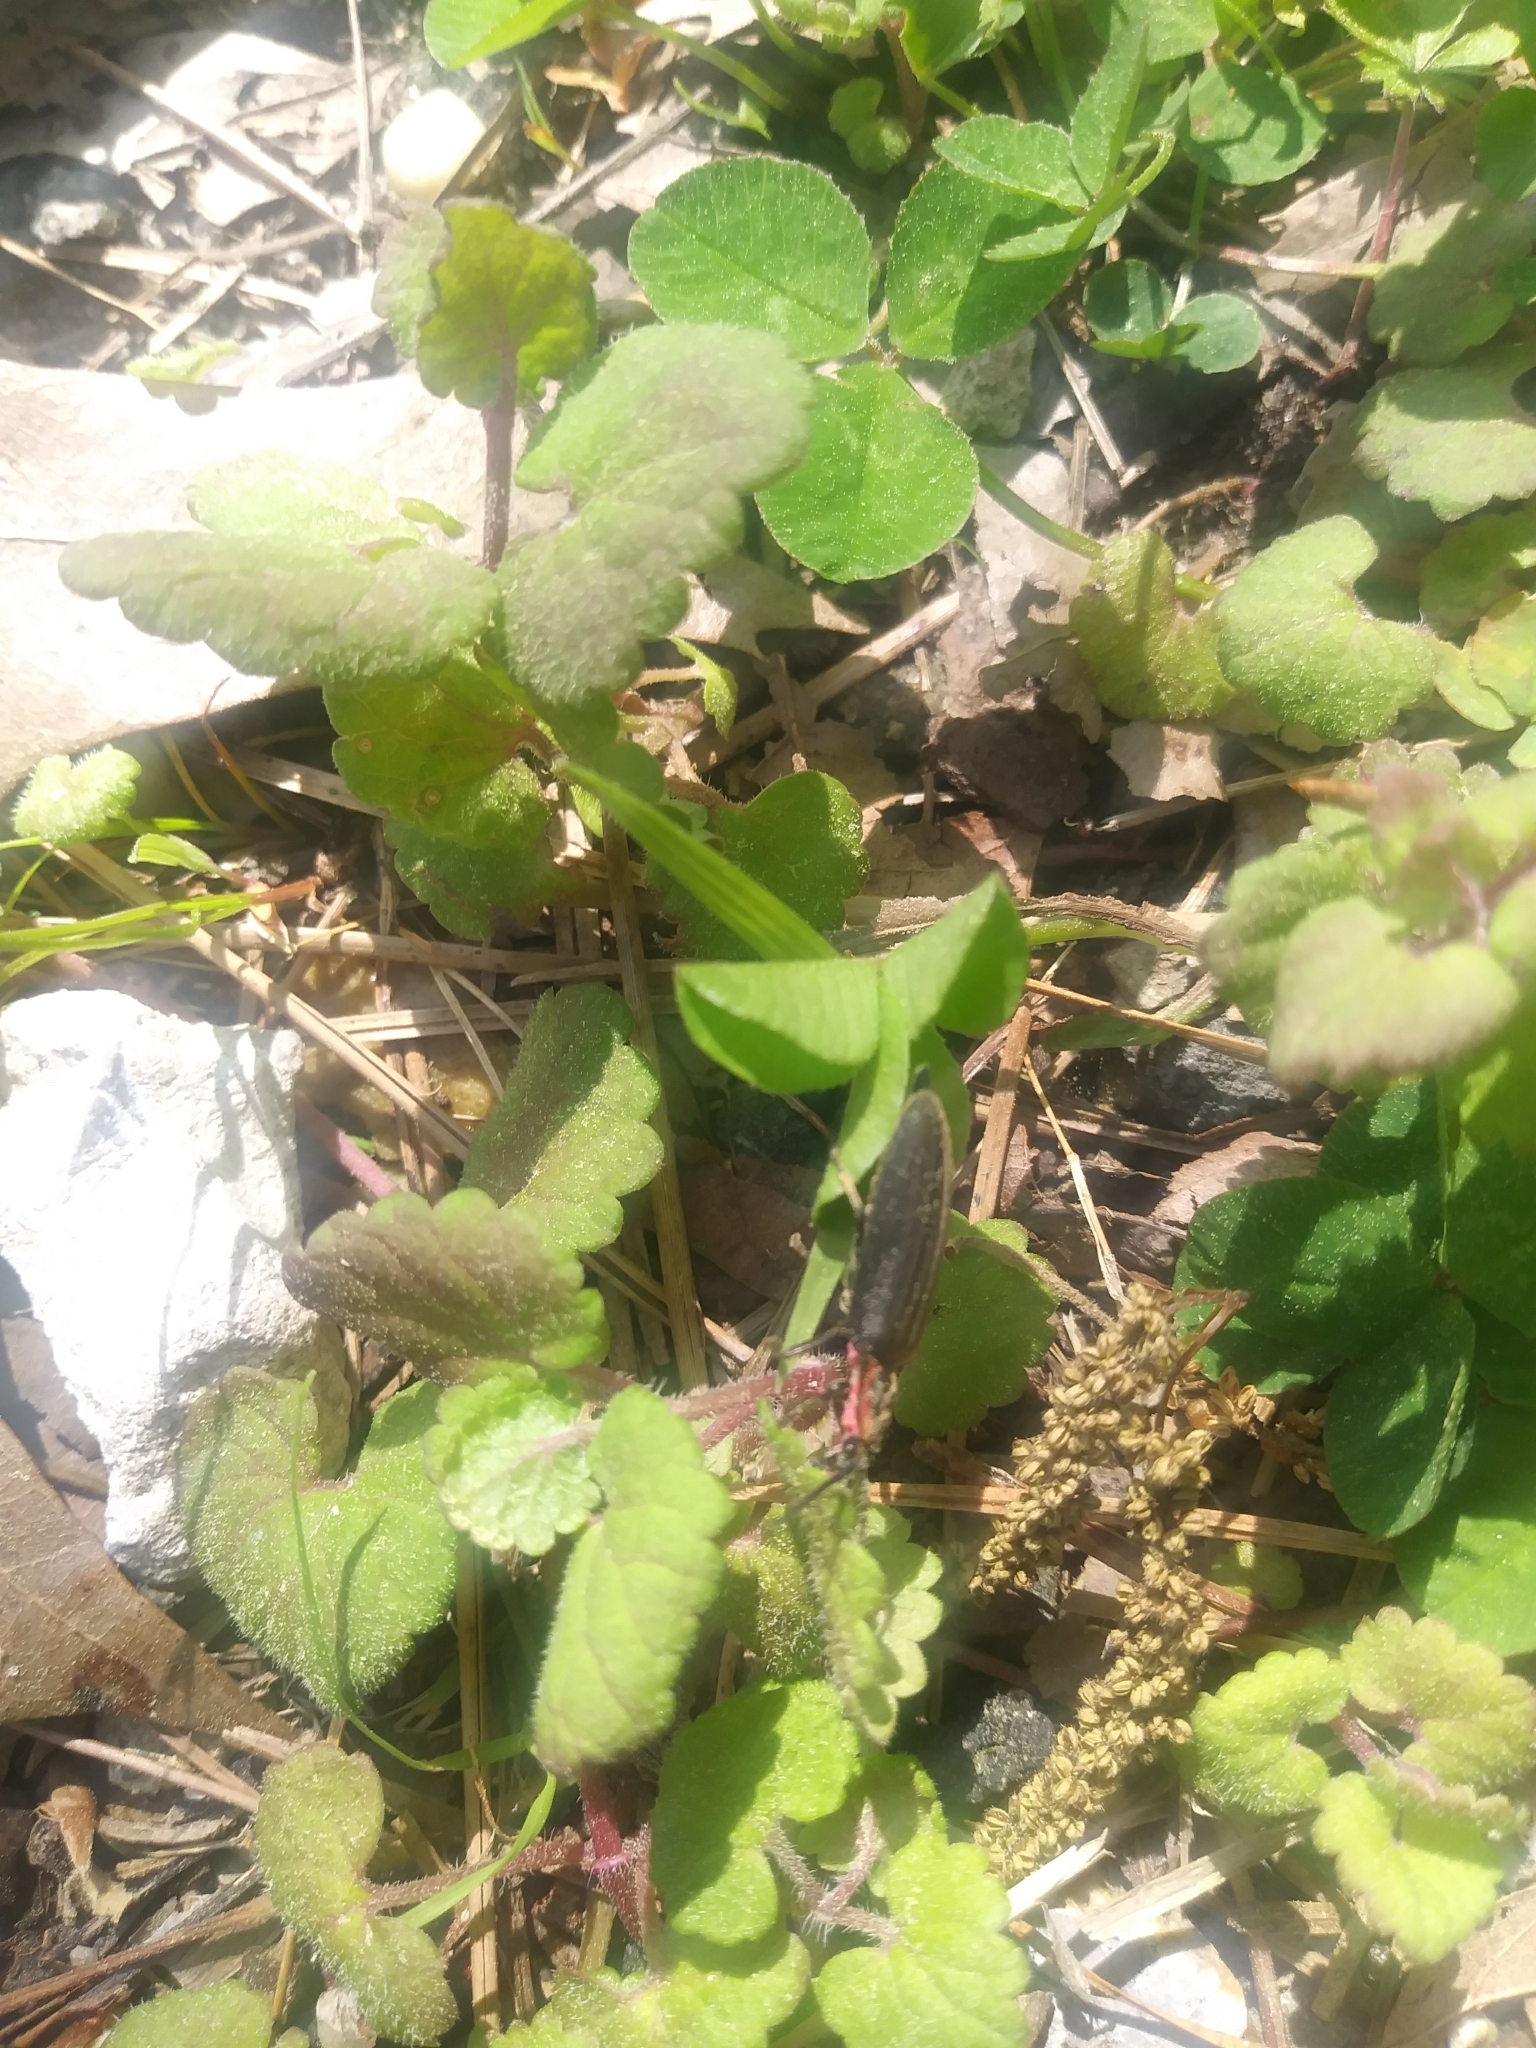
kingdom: Animalia
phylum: Arthropoda
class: Insecta
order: Coleoptera
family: Lampyridae
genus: Photinus
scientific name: Photinus corrusca
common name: Winter firefly
